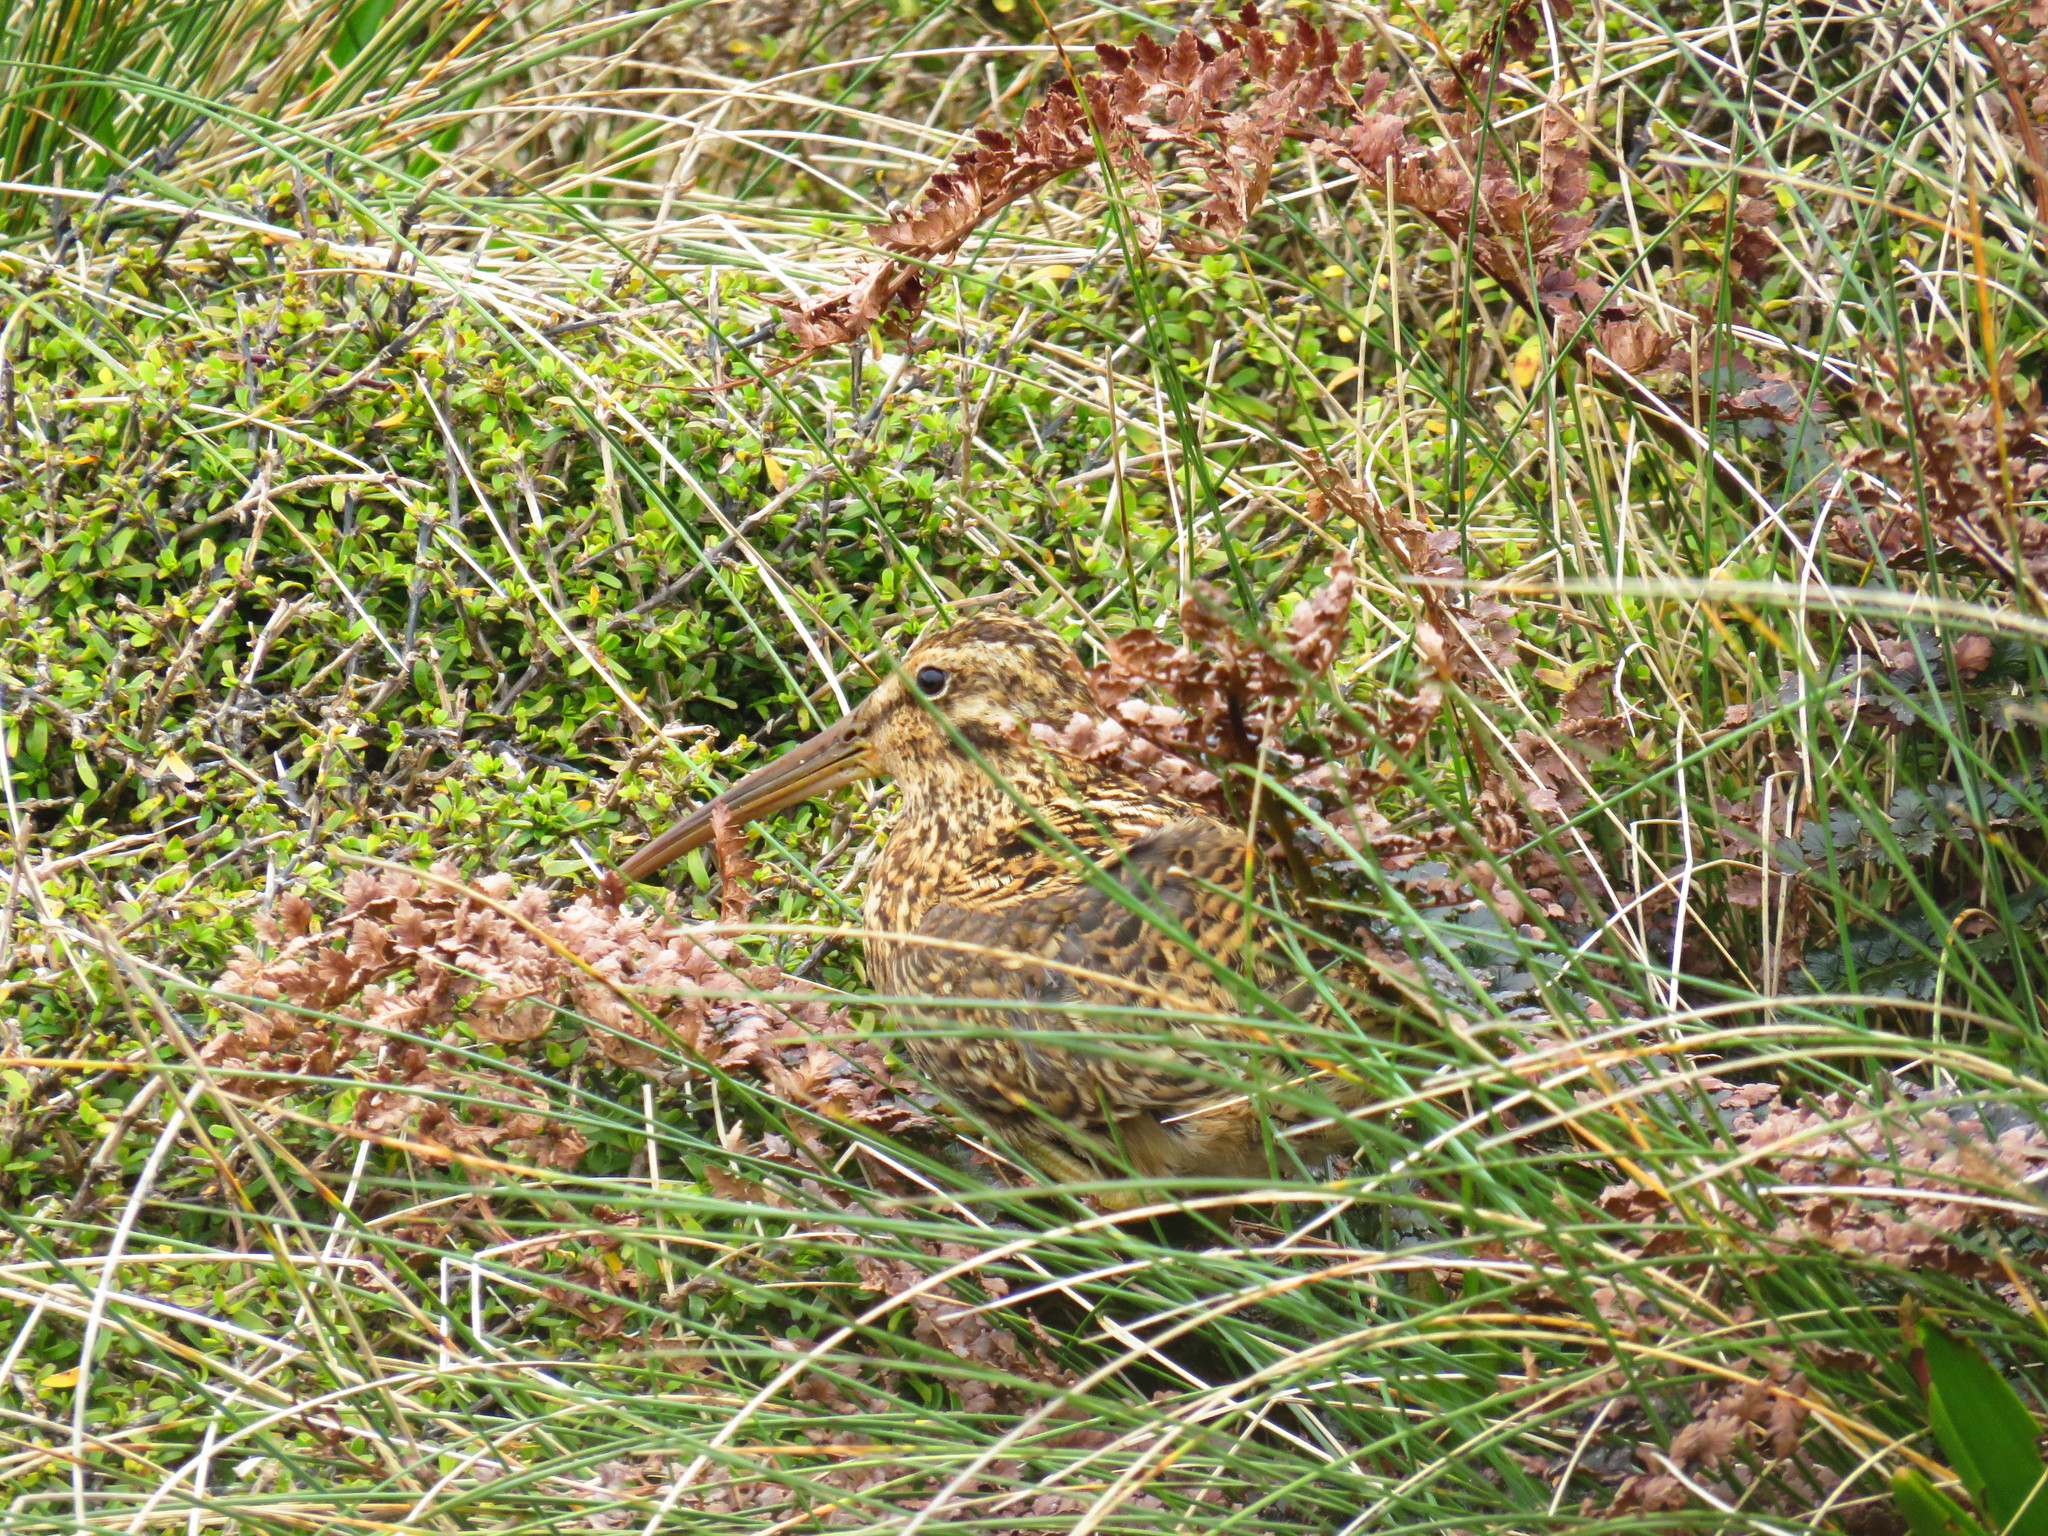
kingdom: Animalia
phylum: Chordata
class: Aves
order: Charadriiformes
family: Scolopacidae
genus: Coenocorypha
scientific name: Coenocorypha aucklandica
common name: Subantarctic snipe
